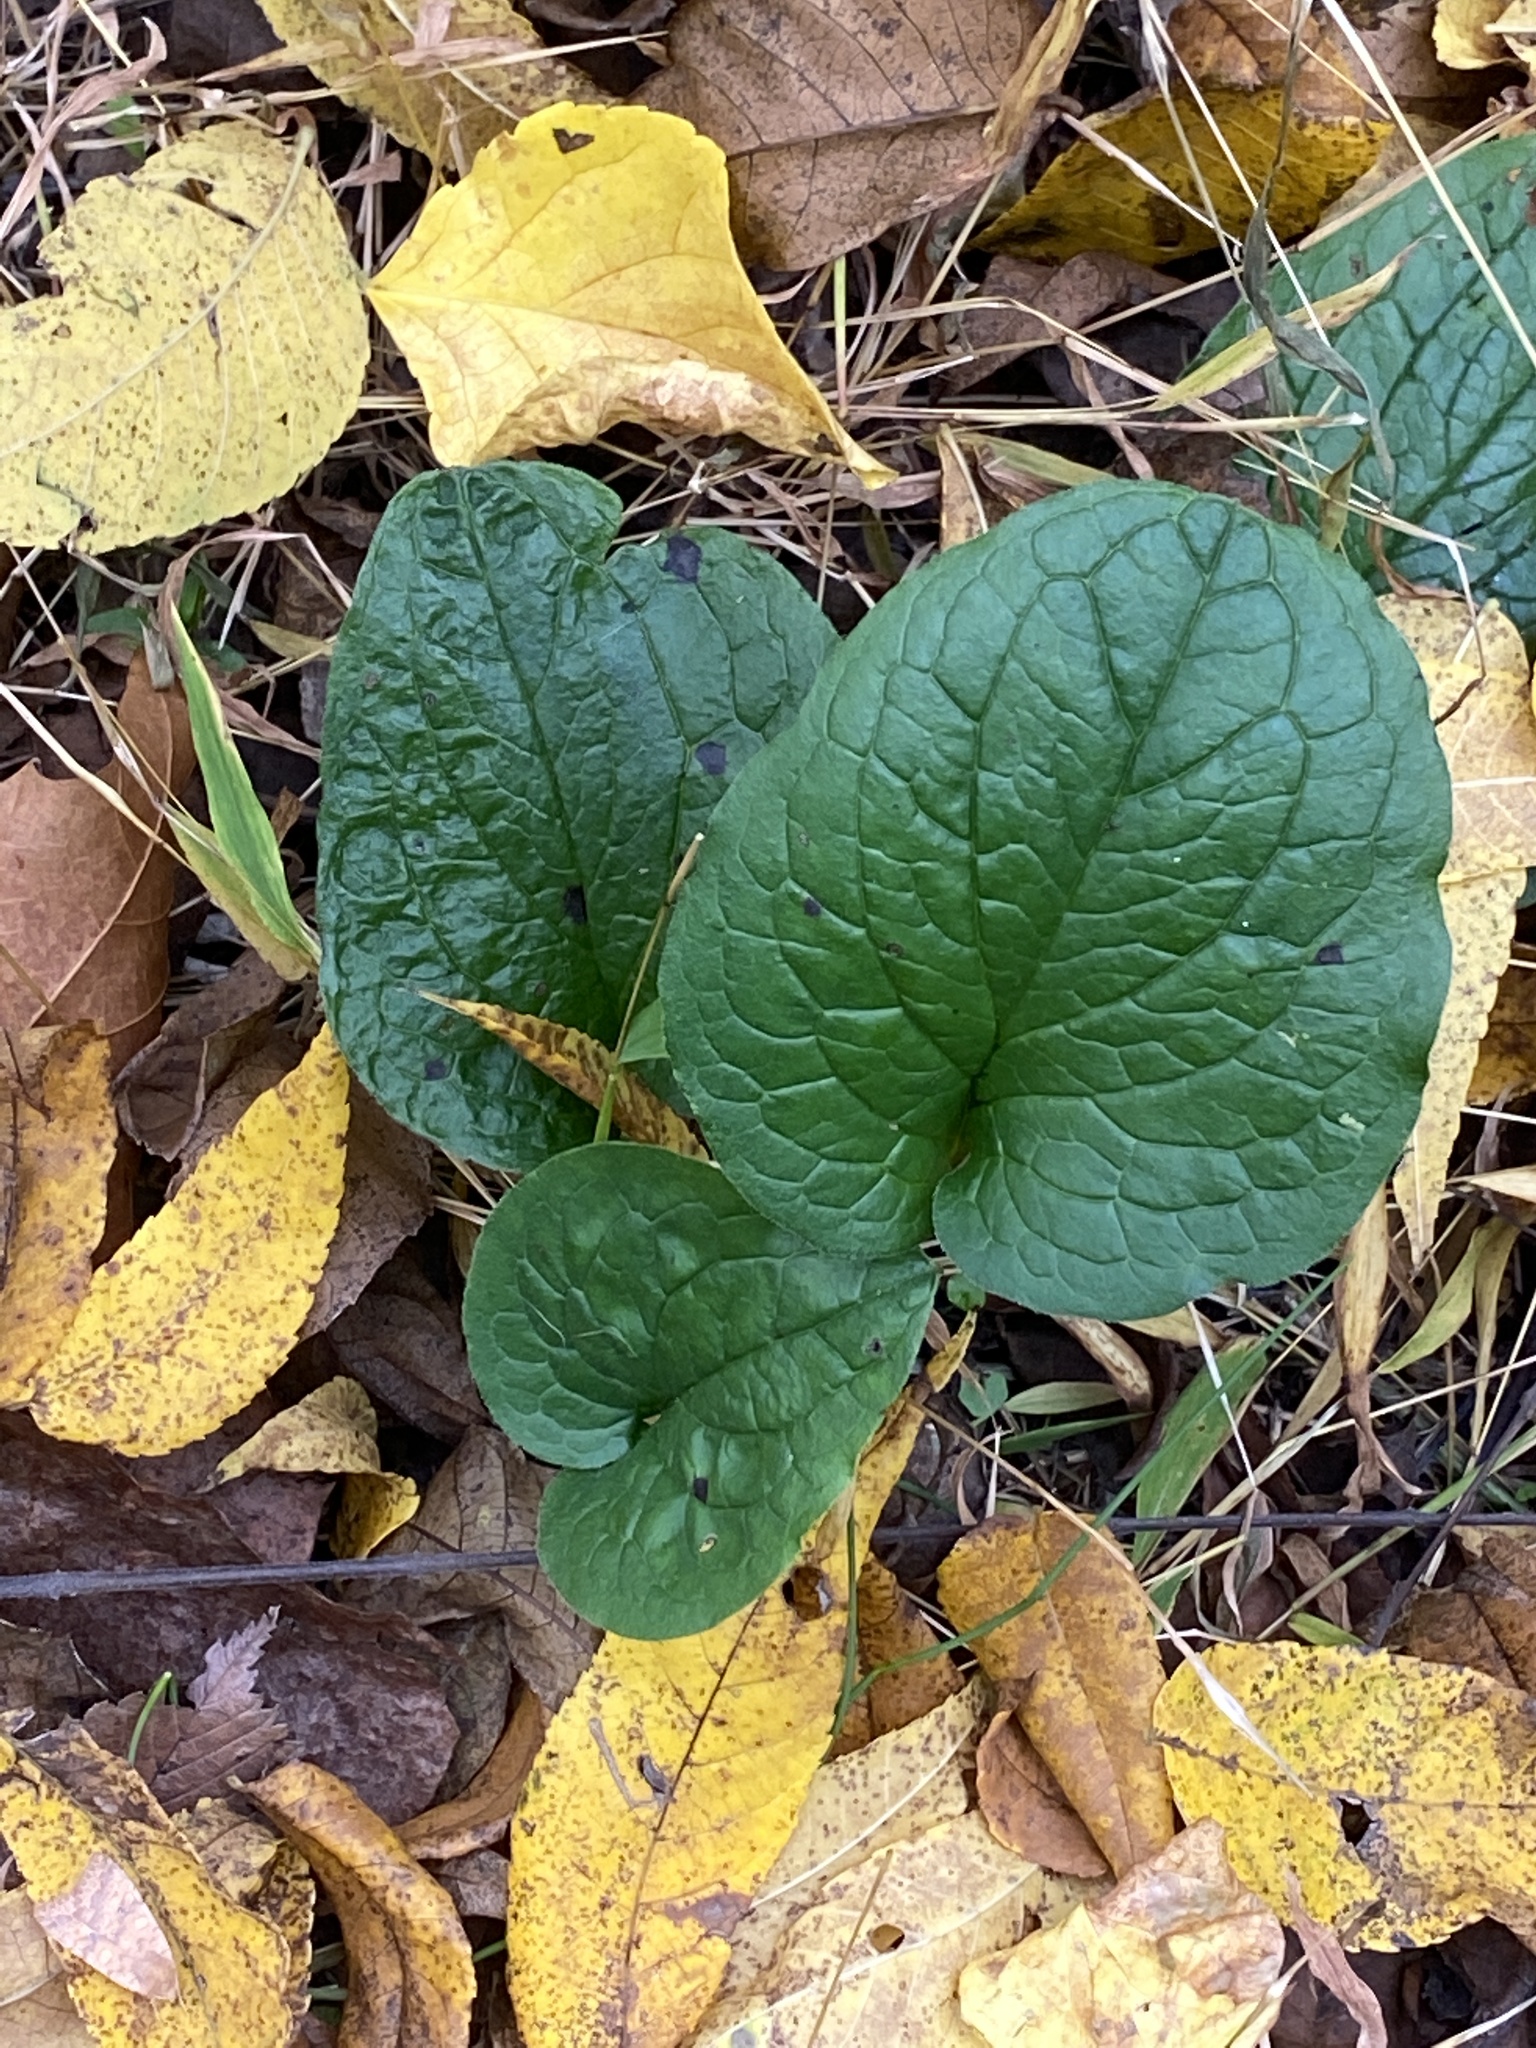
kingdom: Plantae
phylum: Tracheophyta
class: Magnoliopsida
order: Boraginales
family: Boraginaceae
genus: Hackelia
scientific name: Hackelia virginiana
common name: Beggar's-lice
